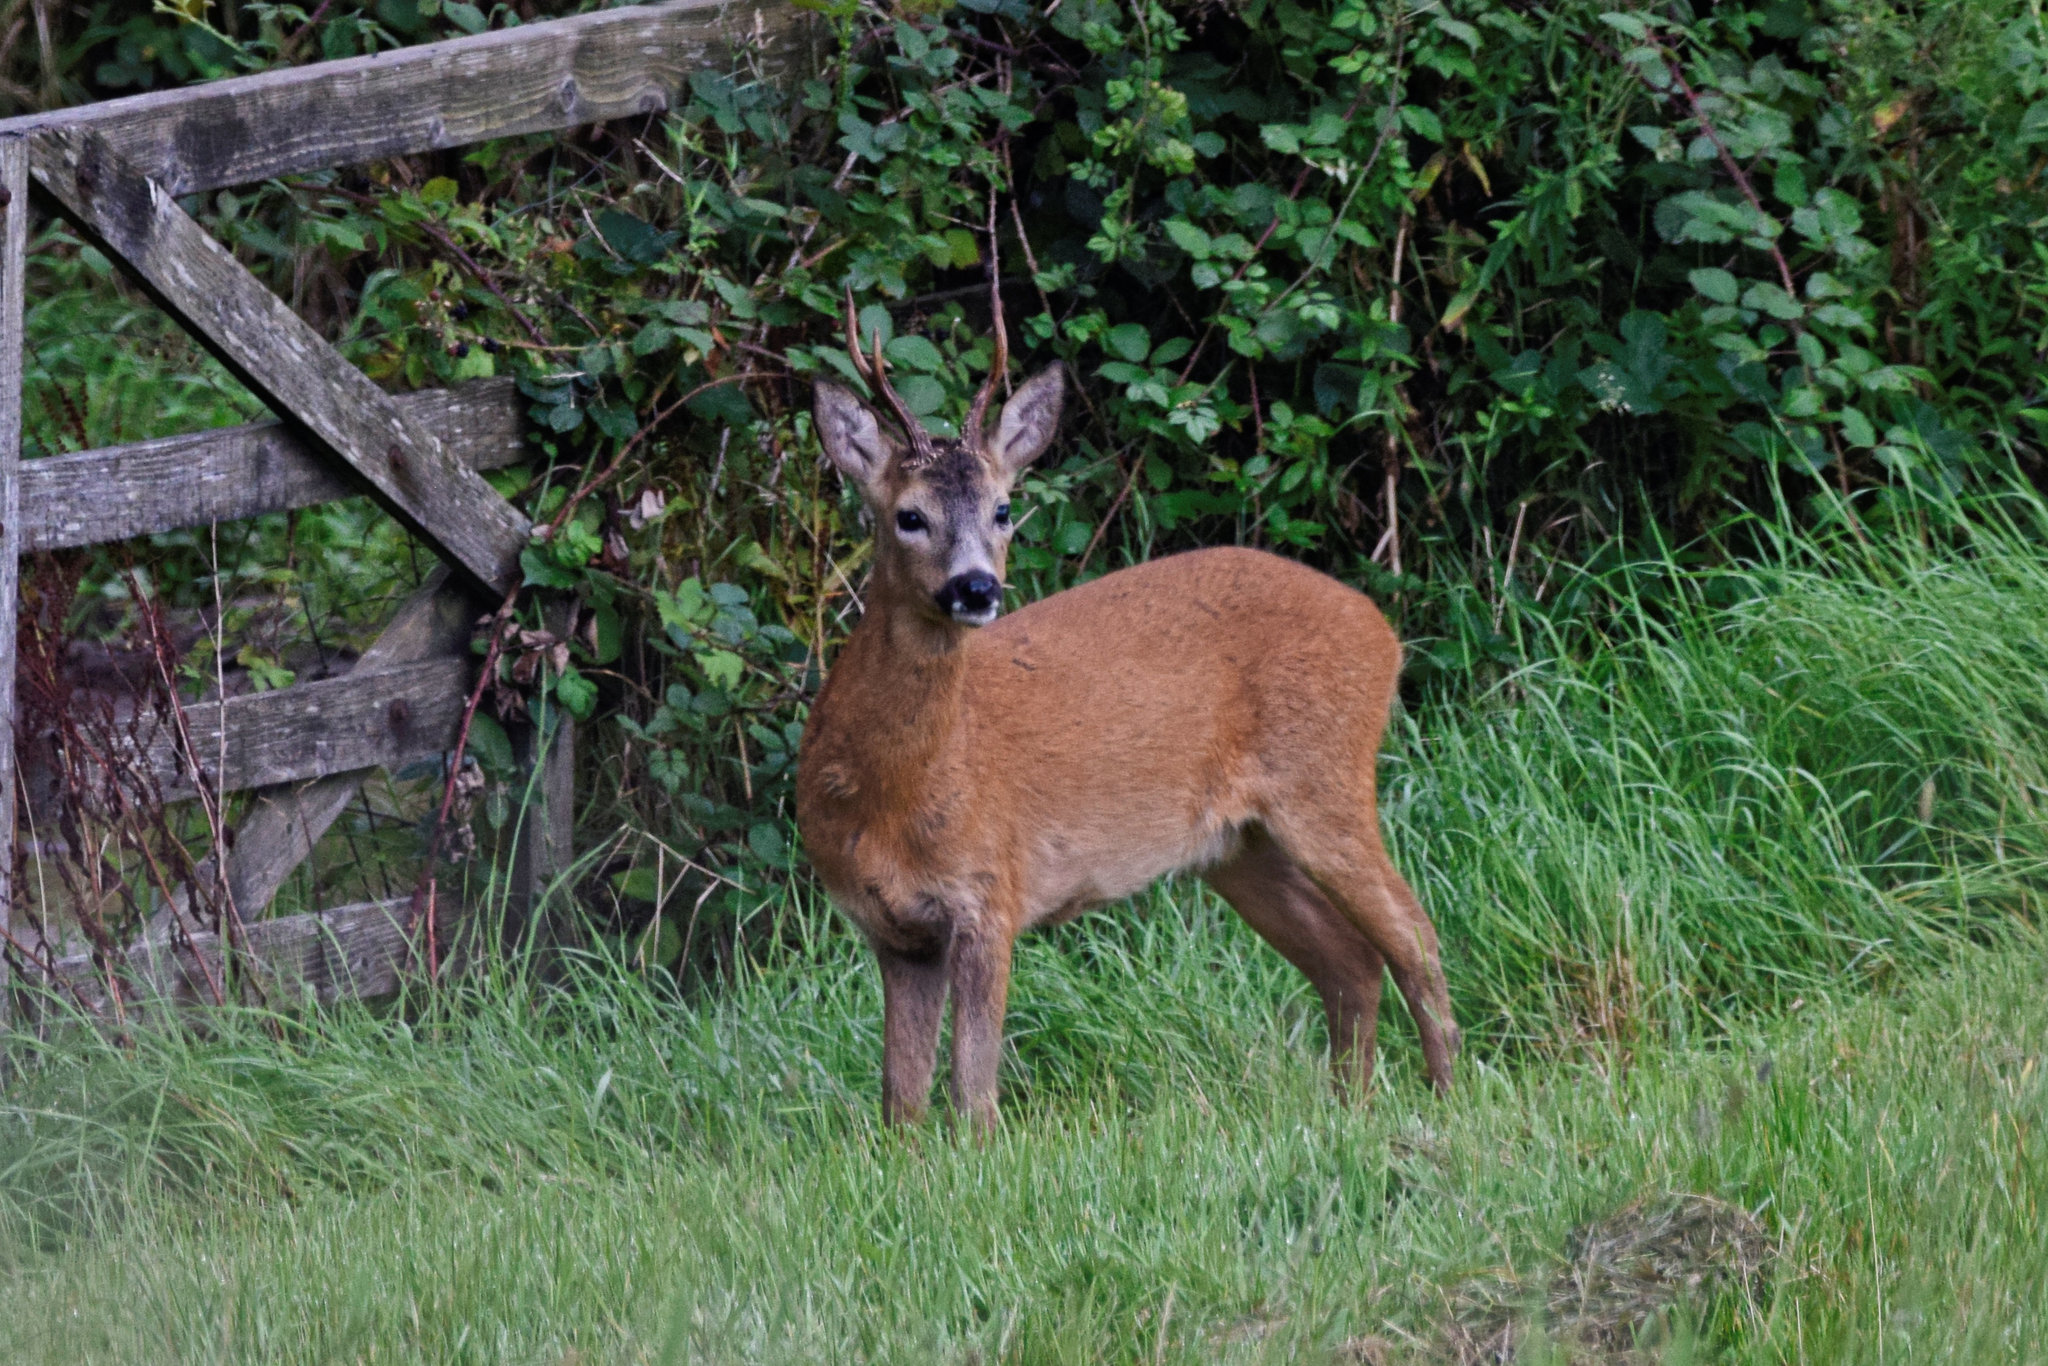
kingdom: Animalia
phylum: Chordata
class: Mammalia
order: Artiodactyla
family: Cervidae
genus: Capreolus
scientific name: Capreolus capreolus
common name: Western roe deer
